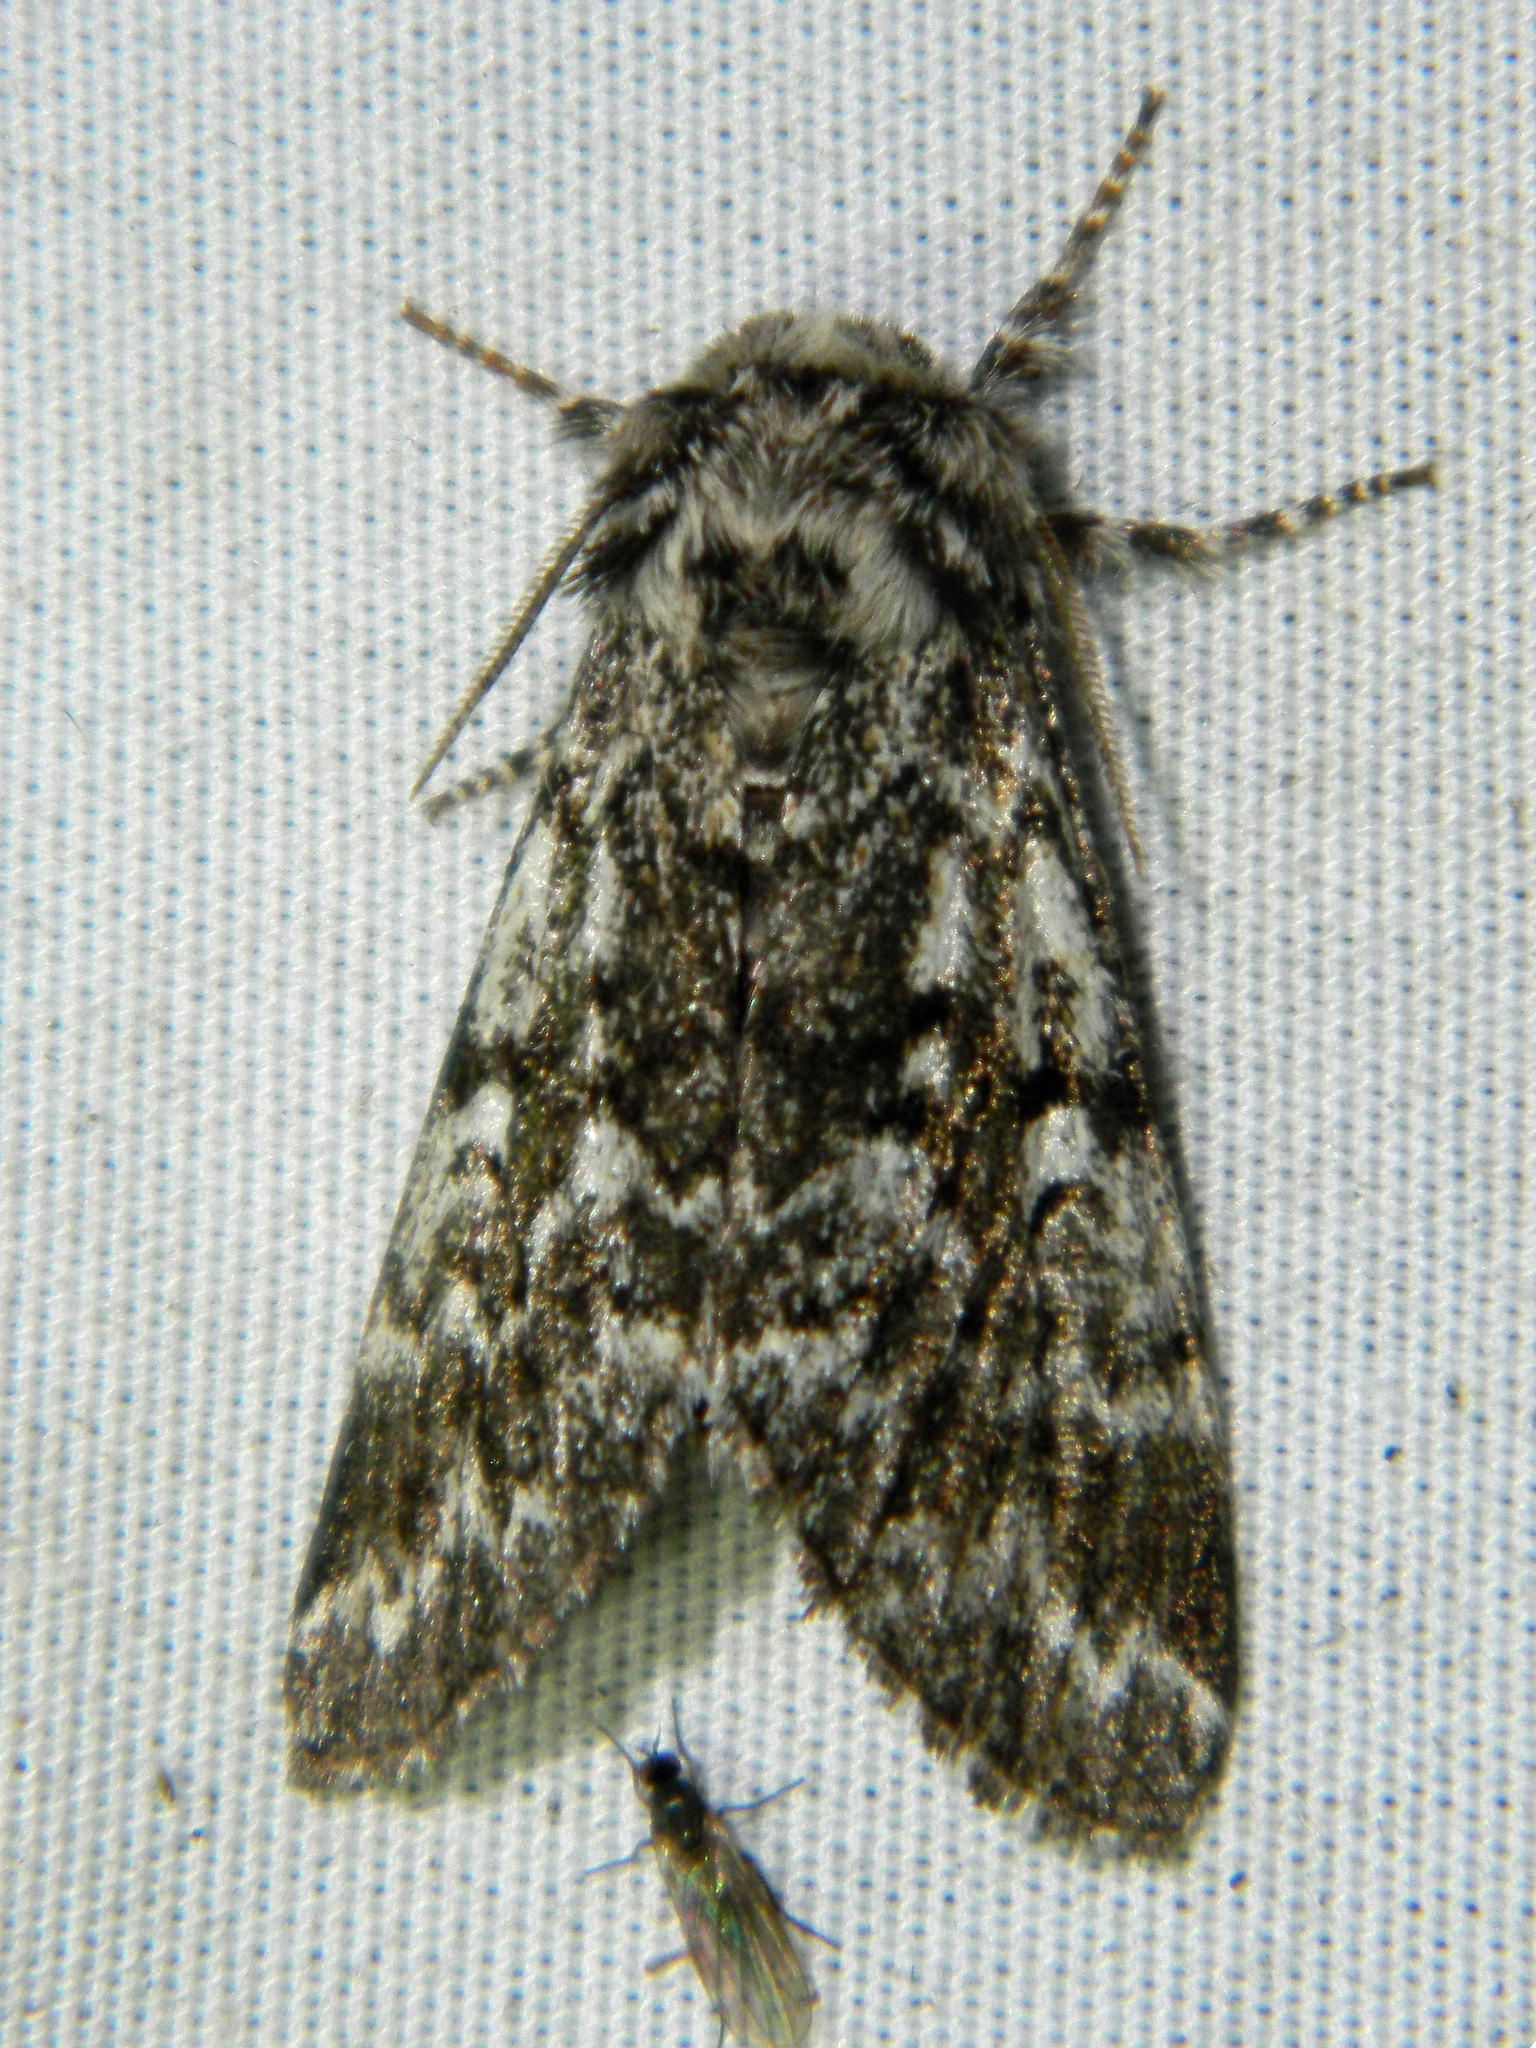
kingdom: Animalia
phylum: Arthropoda
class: Insecta
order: Lepidoptera
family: Noctuidae
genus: Panthea
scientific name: Panthea acronyctoides
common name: Black zigzag moth
